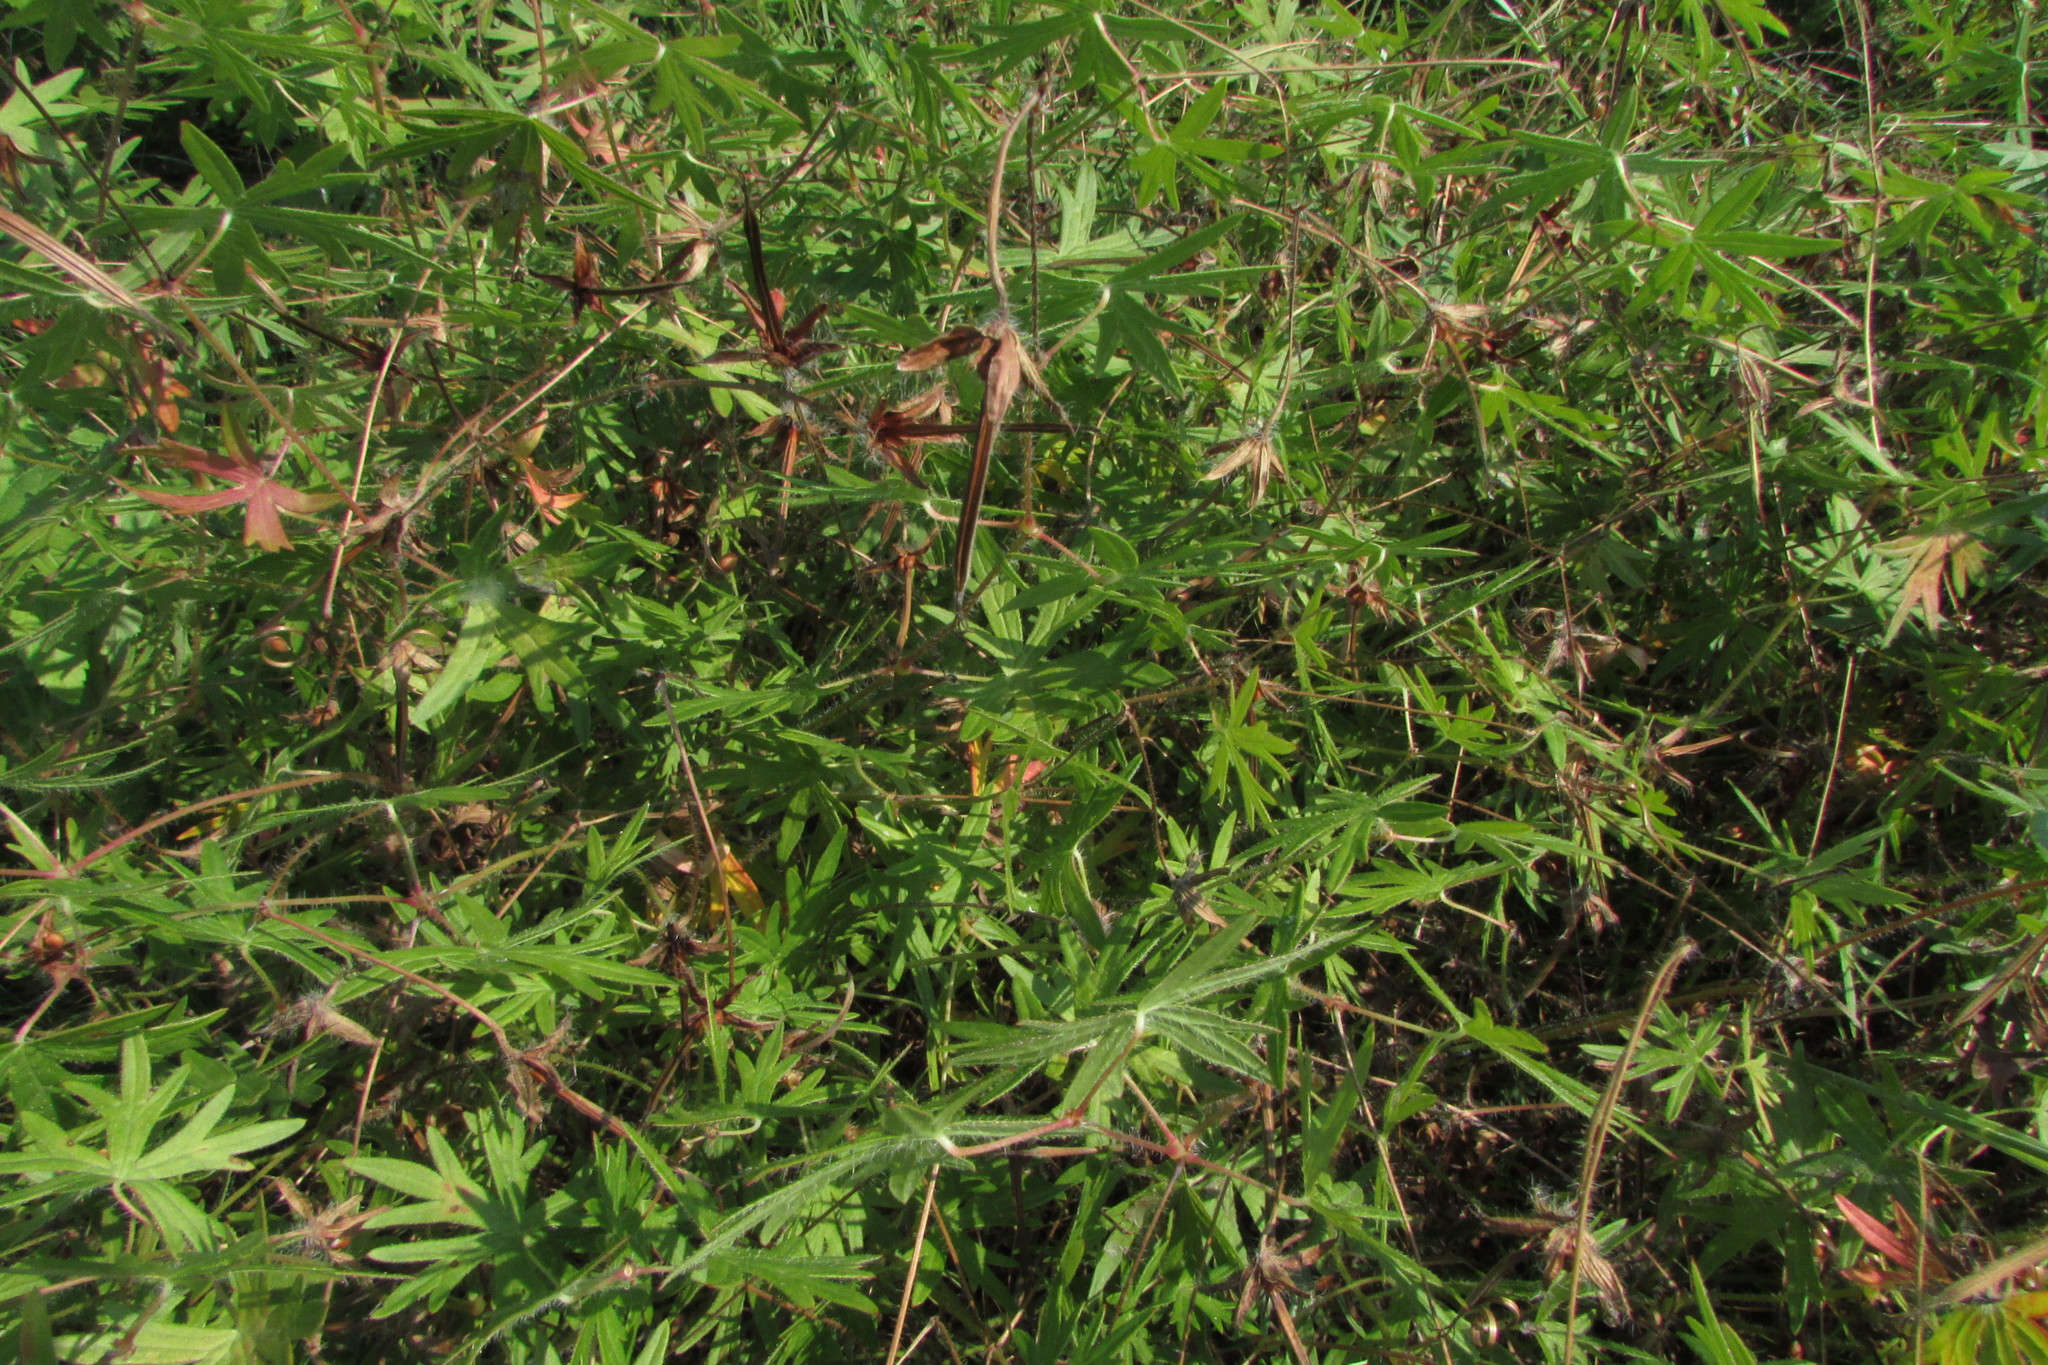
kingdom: Plantae
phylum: Tracheophyta
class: Magnoliopsida
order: Geraniales
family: Geraniaceae
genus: Geranium
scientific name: Geranium sanguineum
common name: Bloody crane's-bill
